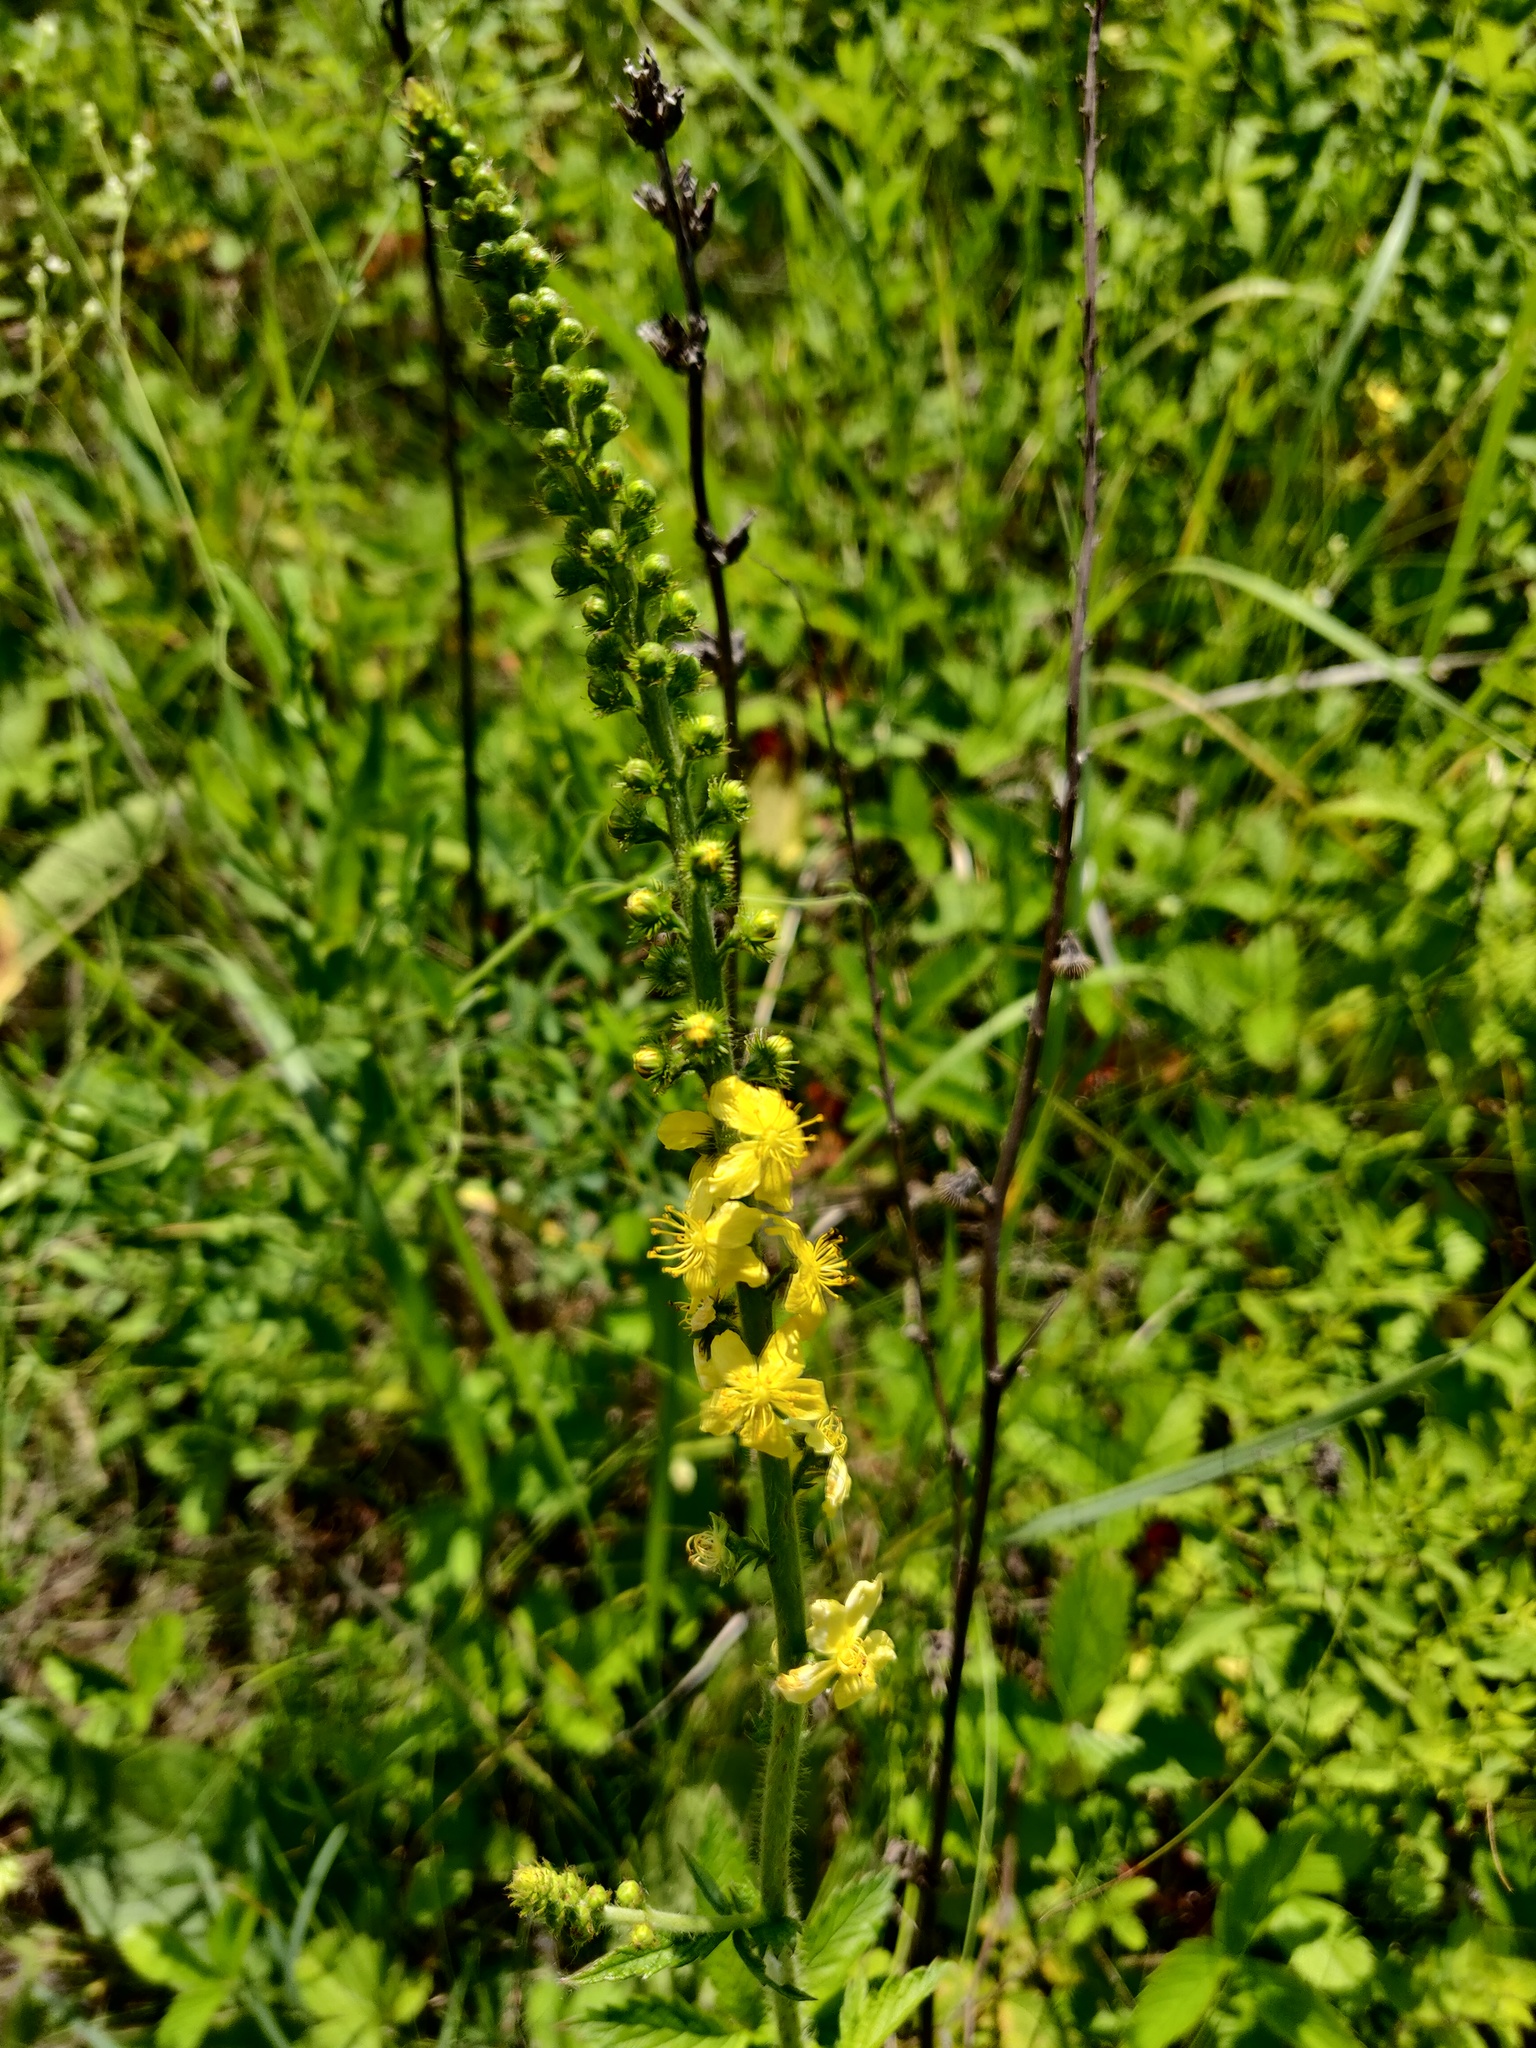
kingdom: Plantae
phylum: Tracheophyta
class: Magnoliopsida
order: Rosales
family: Rosaceae
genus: Agrimonia
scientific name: Agrimonia eupatoria
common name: Agrimony
